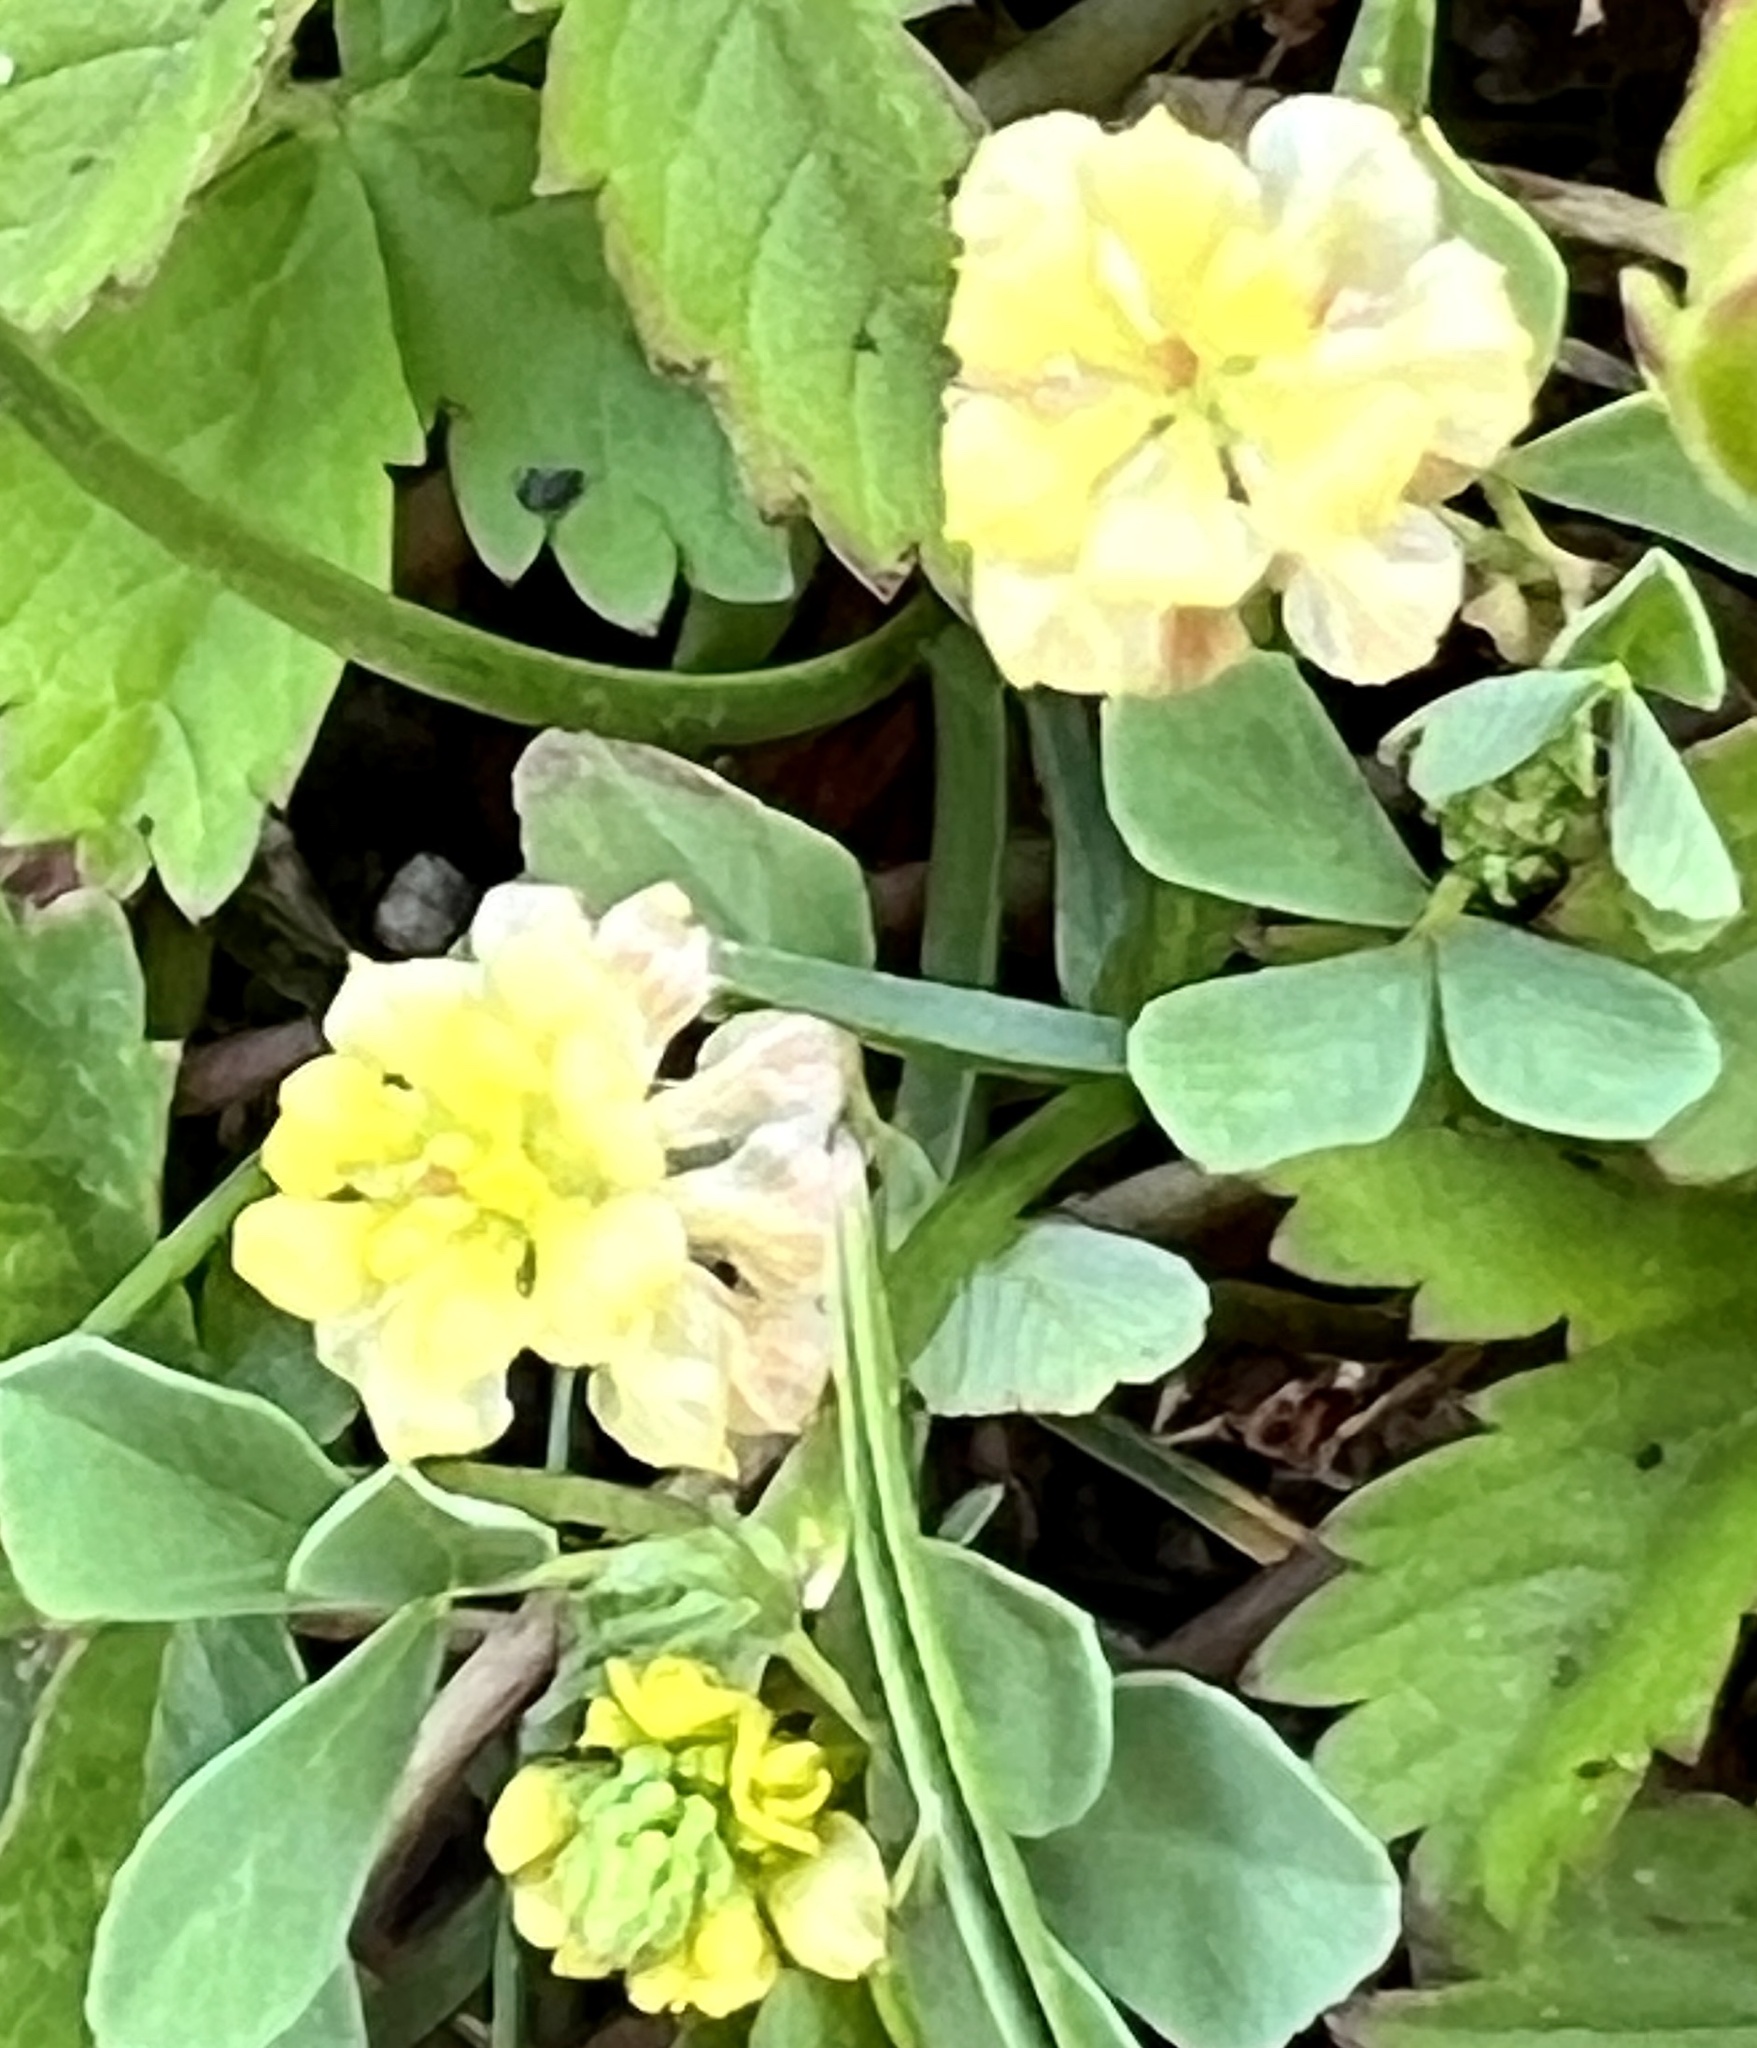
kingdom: Plantae
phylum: Tracheophyta
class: Magnoliopsida
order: Fabales
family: Fabaceae
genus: Trifolium
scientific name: Trifolium campestre
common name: Field clover
